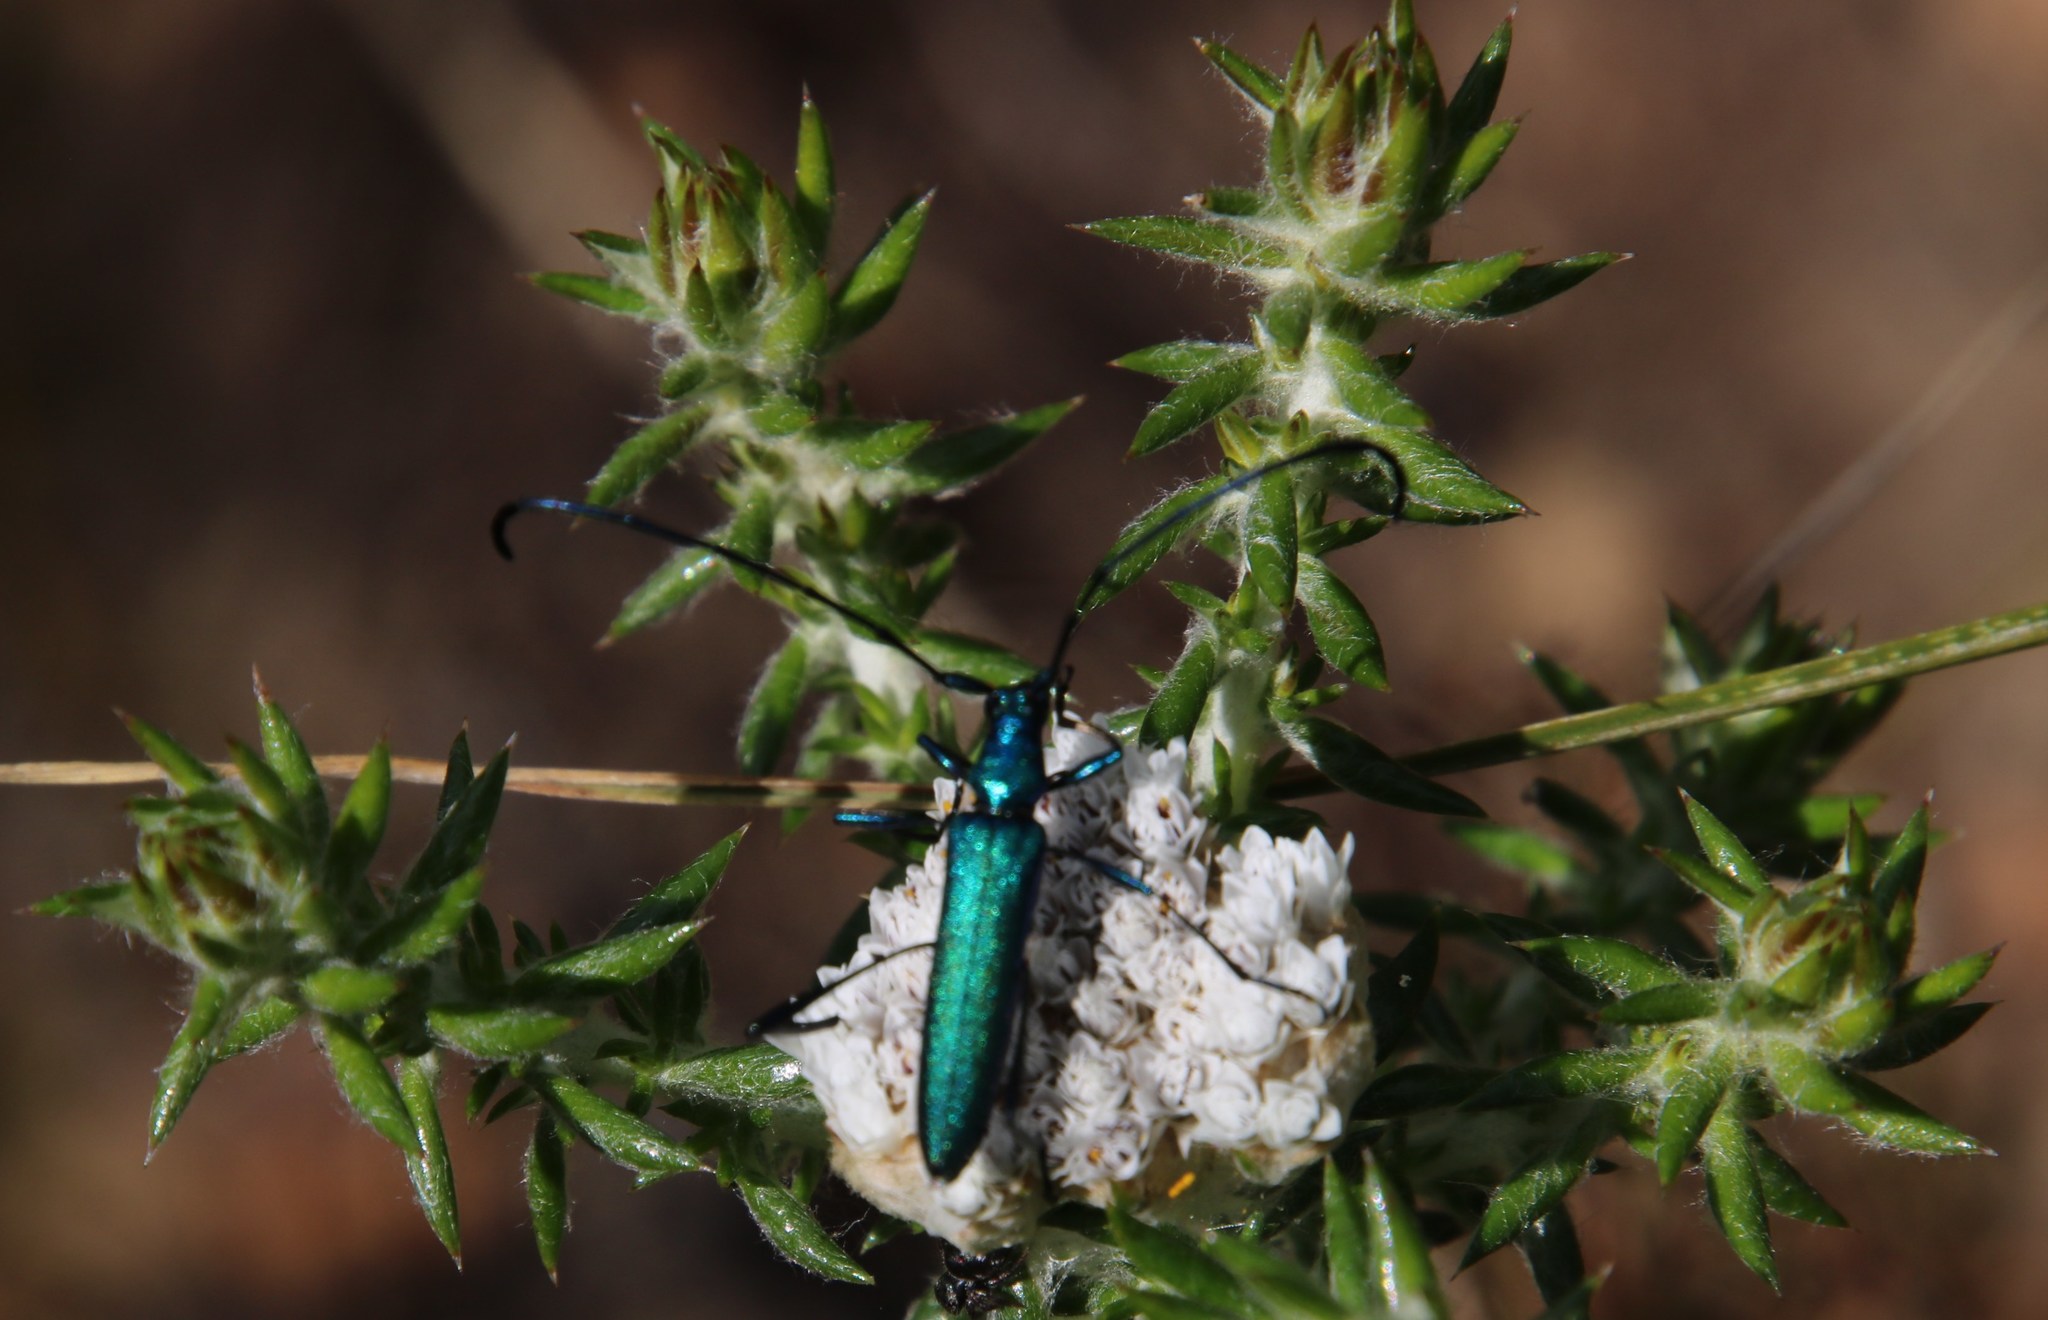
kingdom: Animalia
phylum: Arthropoda
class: Insecta
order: Coleoptera
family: Cerambycidae
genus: Promeces
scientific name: Promeces longipes
